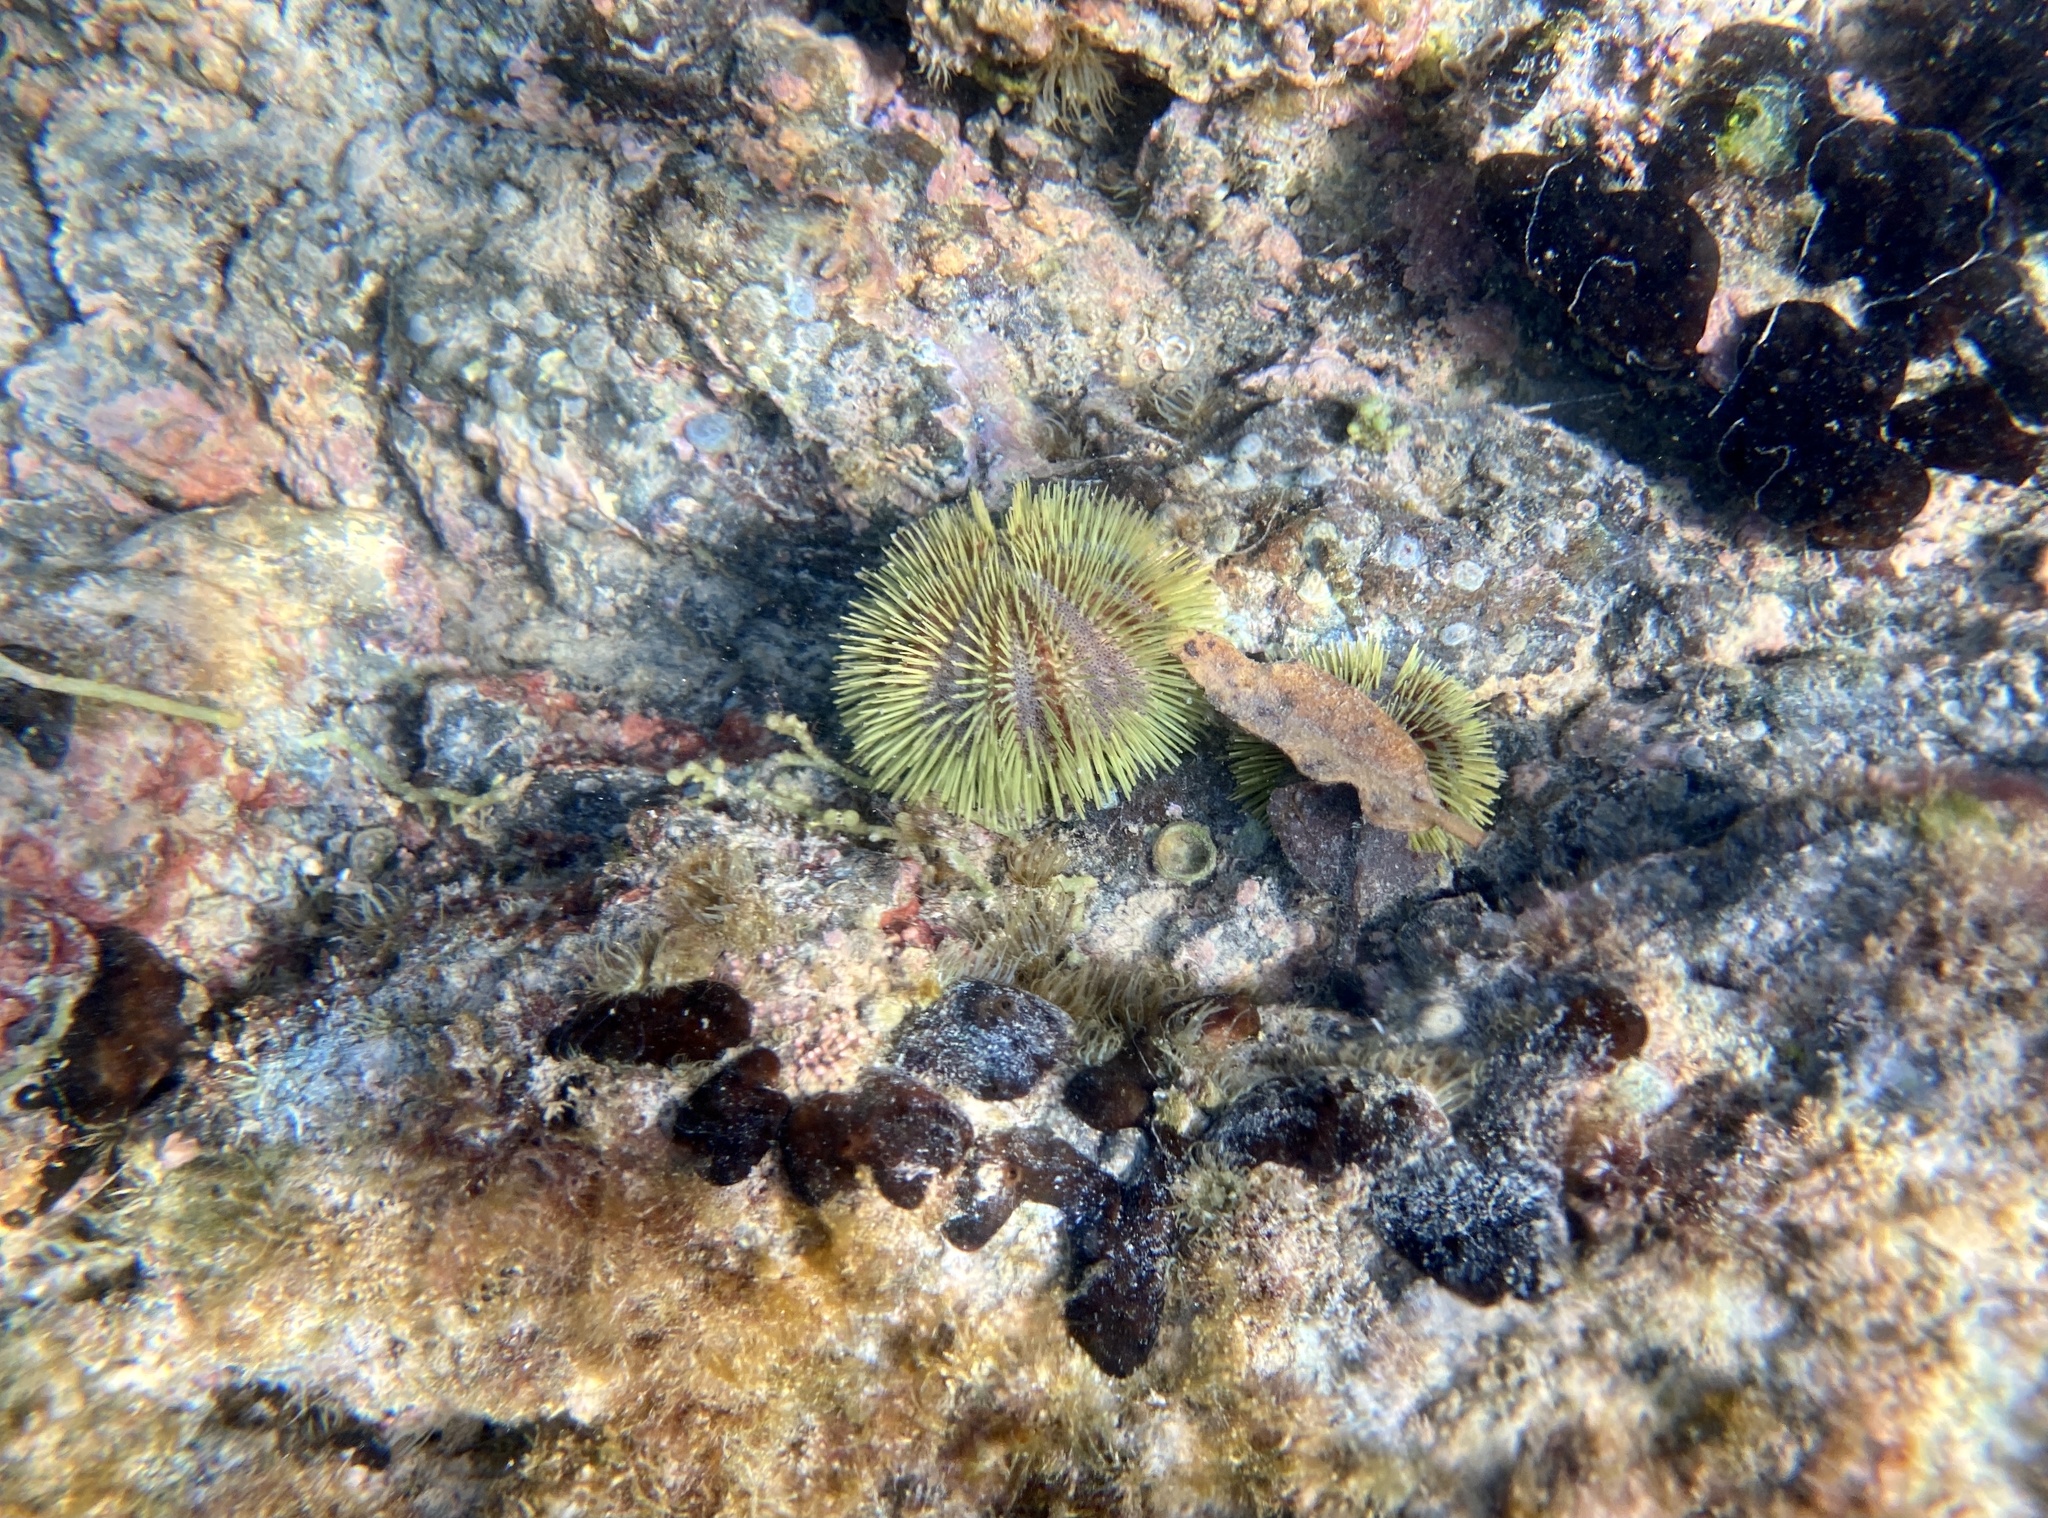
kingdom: Animalia
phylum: Echinodermata
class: Echinoidea
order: Camarodonta
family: Toxopneustidae
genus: Lytechinus
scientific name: Lytechinus semituberculatus
